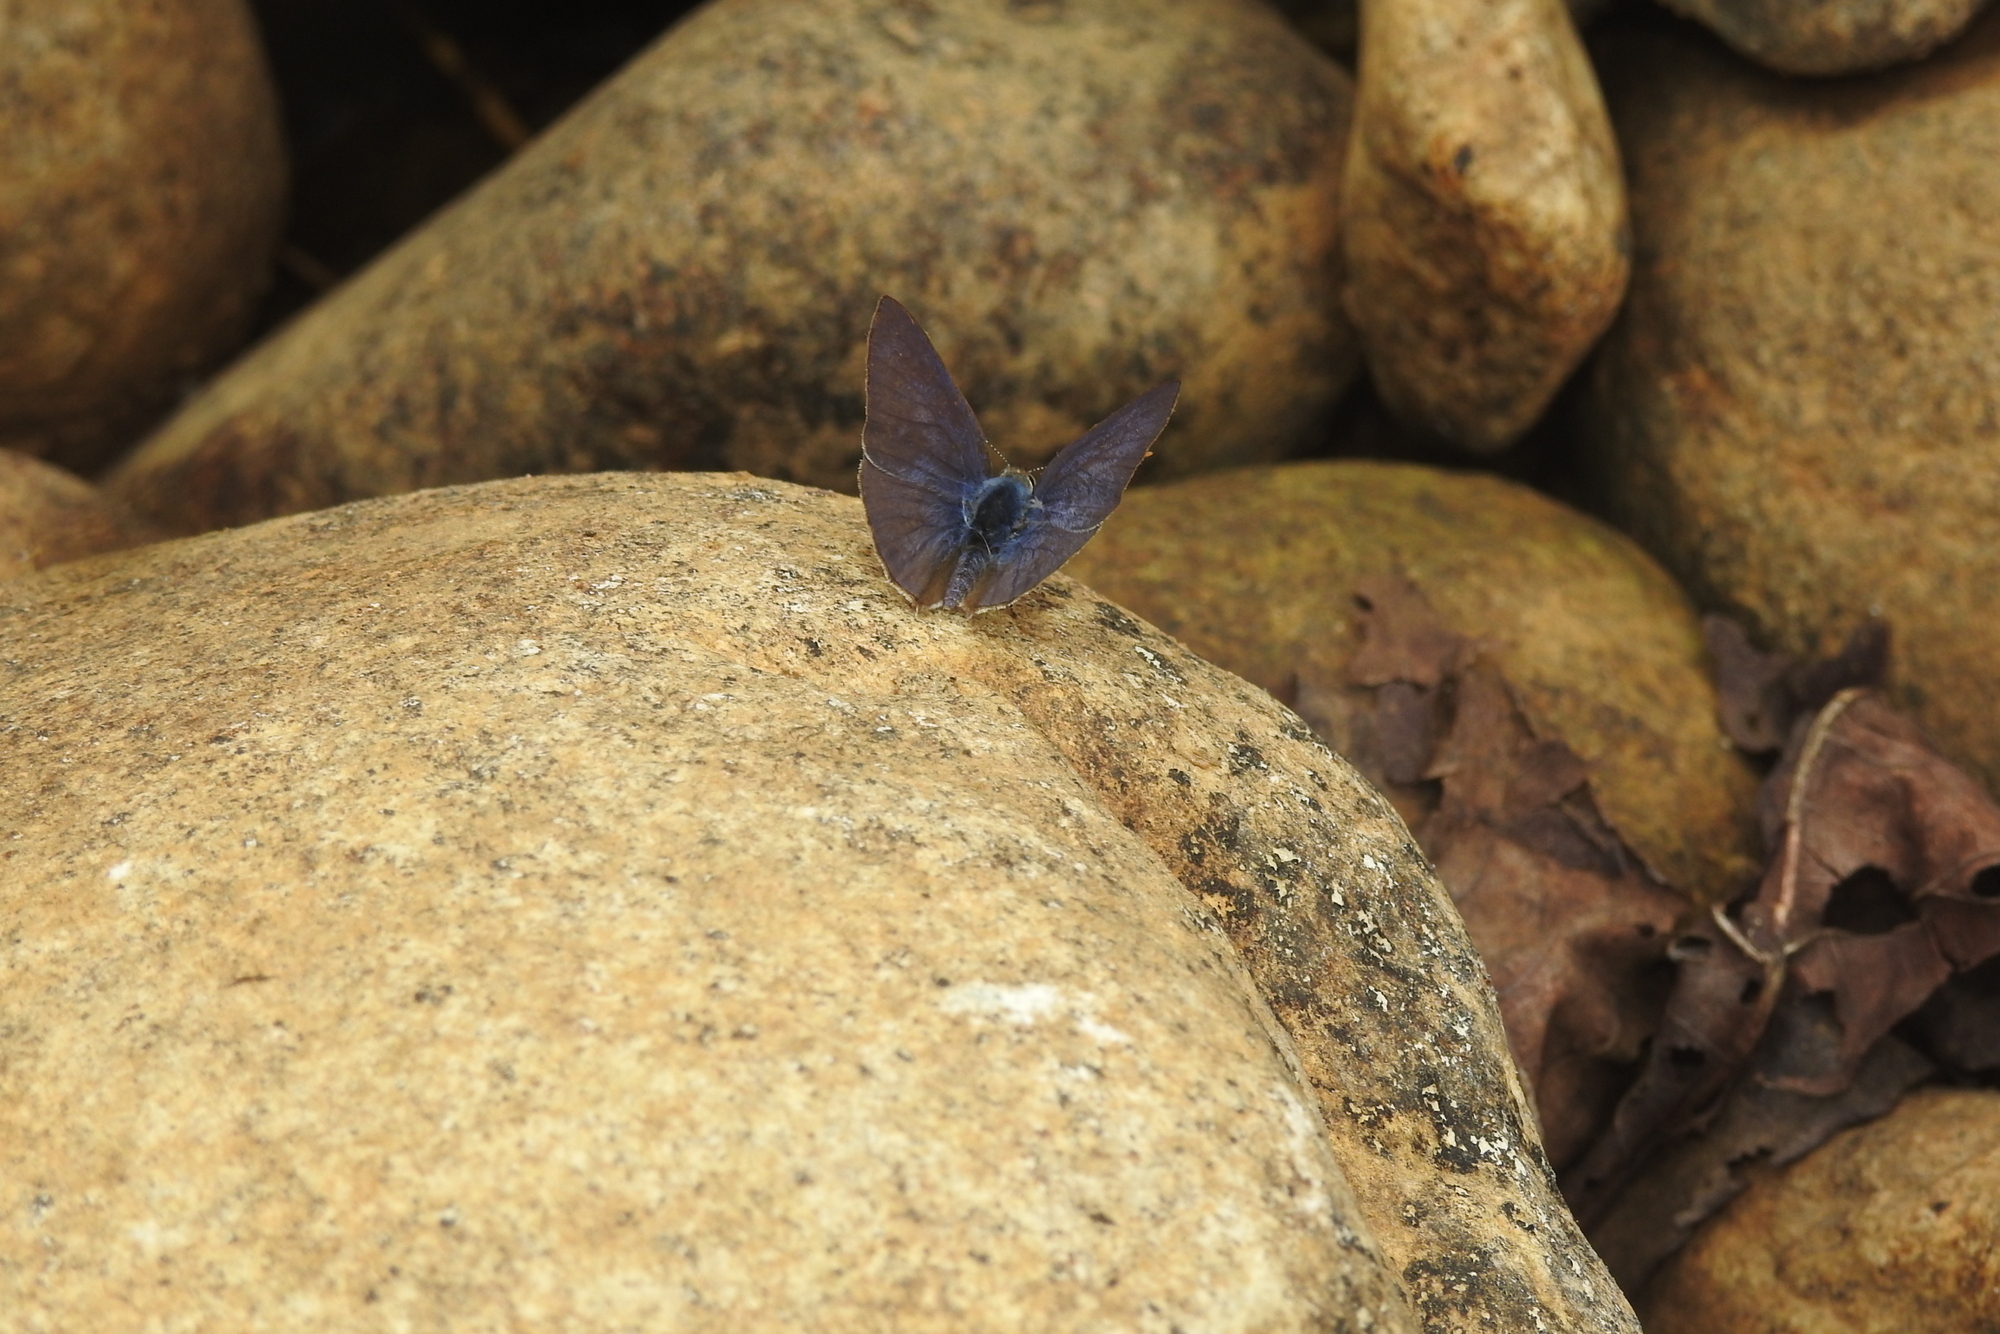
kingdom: Animalia
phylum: Arthropoda
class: Insecta
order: Lepidoptera
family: Lycaenidae
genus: Anthene
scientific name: Anthene lycaenina
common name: Pointed ciliate blue
